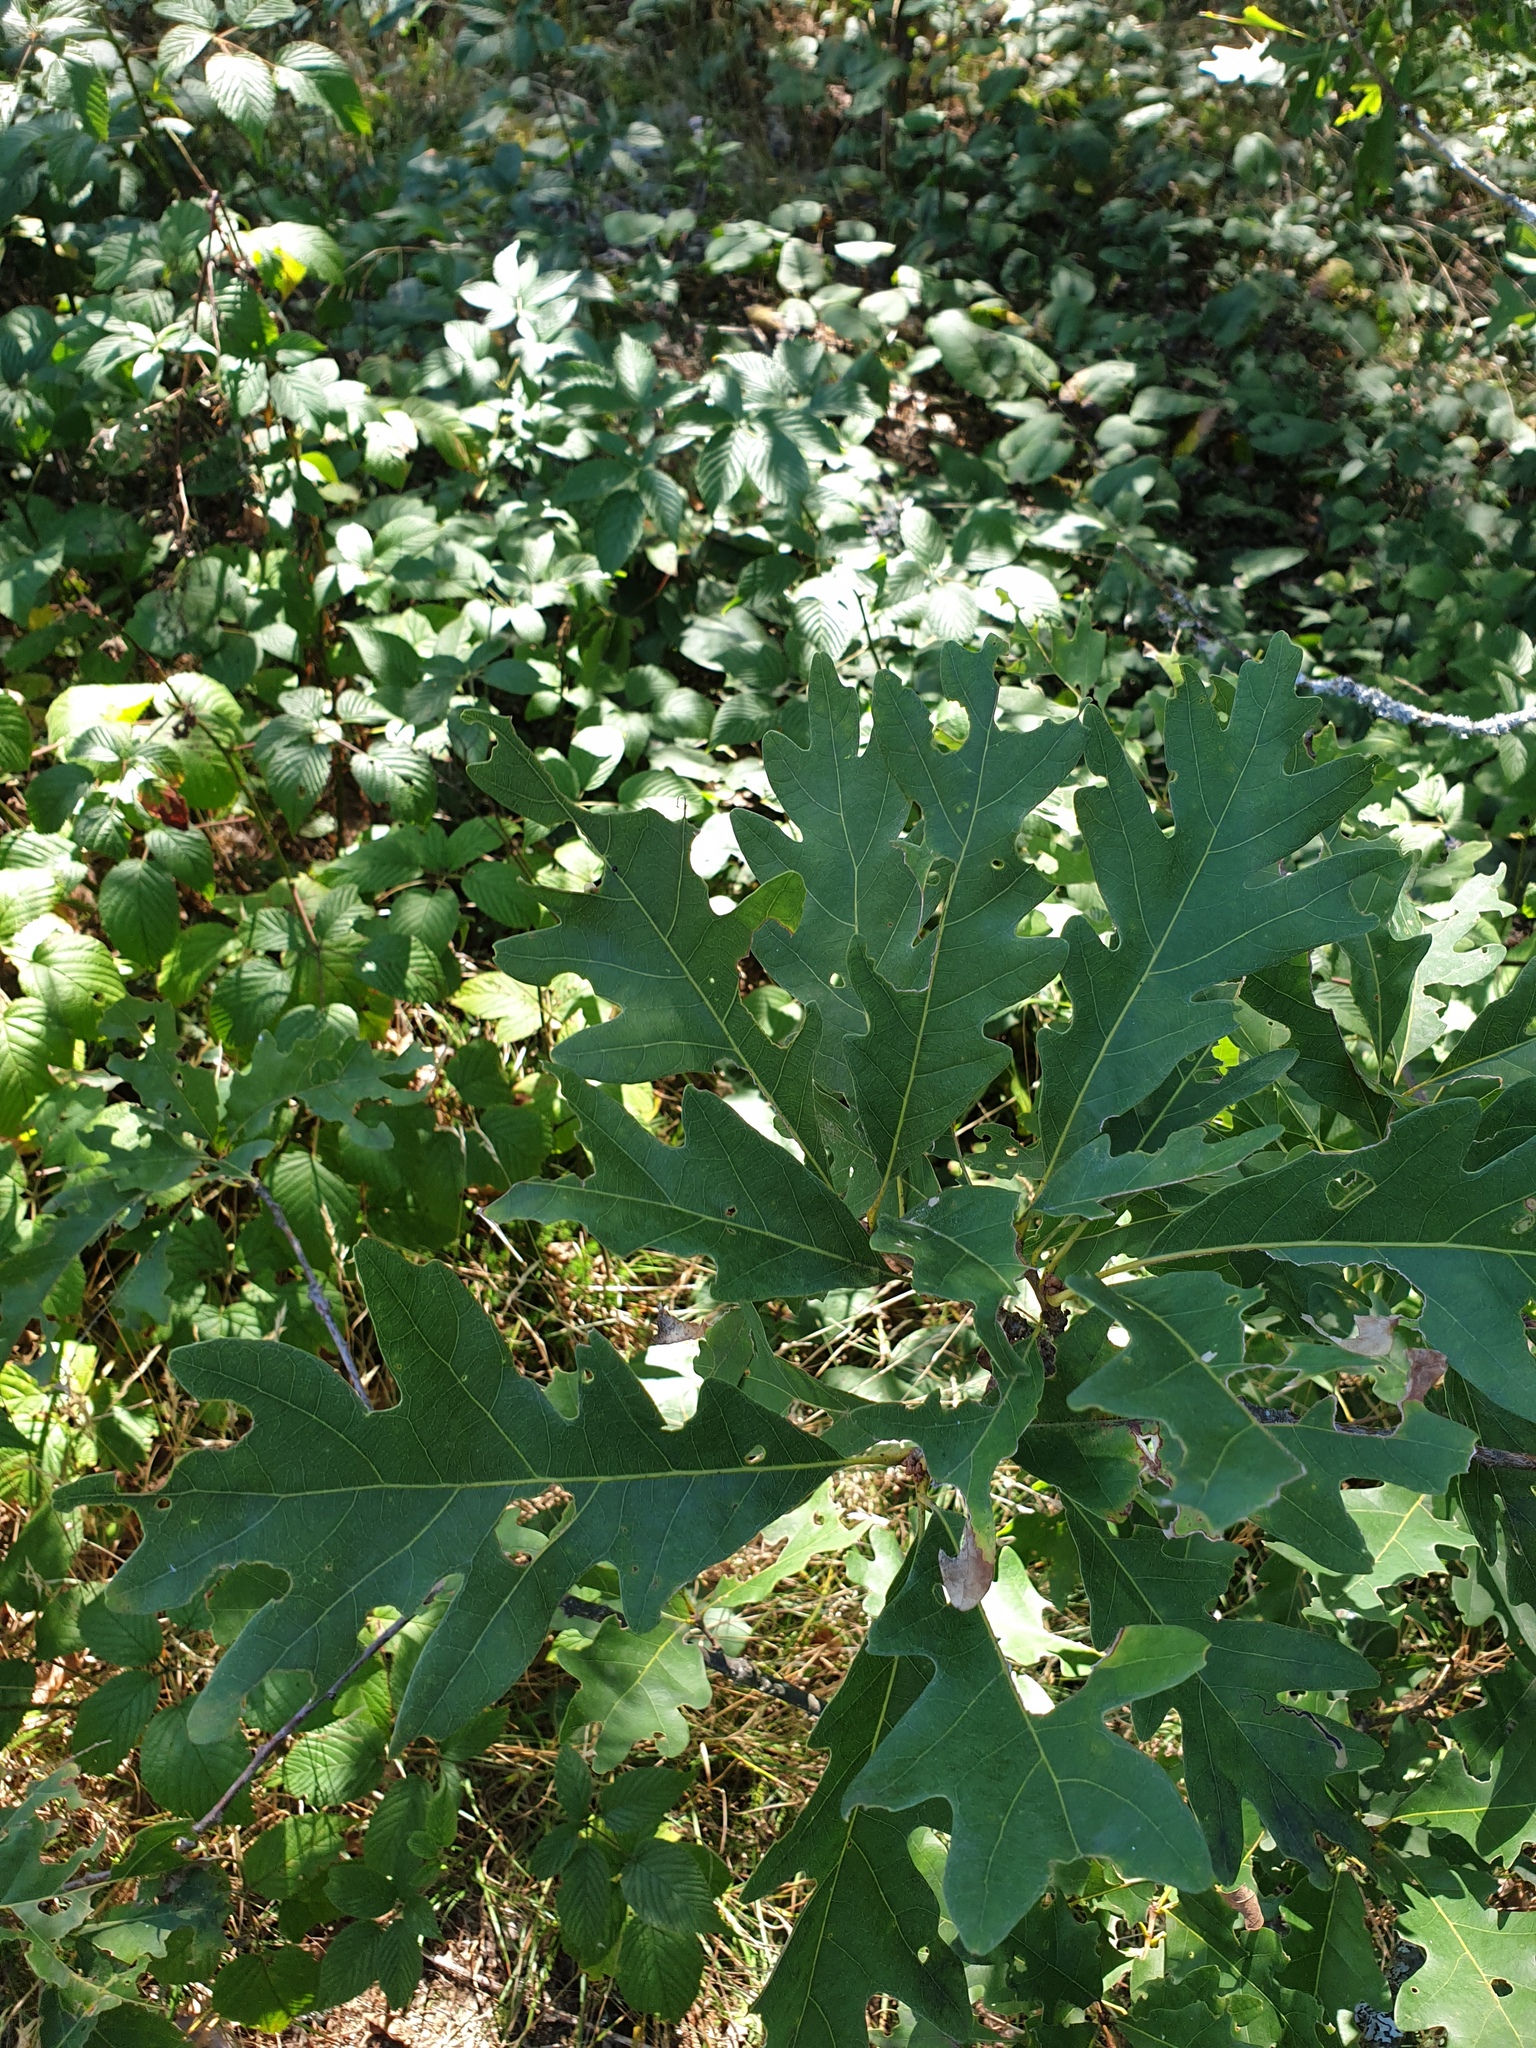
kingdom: Plantae
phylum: Tracheophyta
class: Magnoliopsida
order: Fagales
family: Fagaceae
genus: Quercus
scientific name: Quercus alba
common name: White oak
